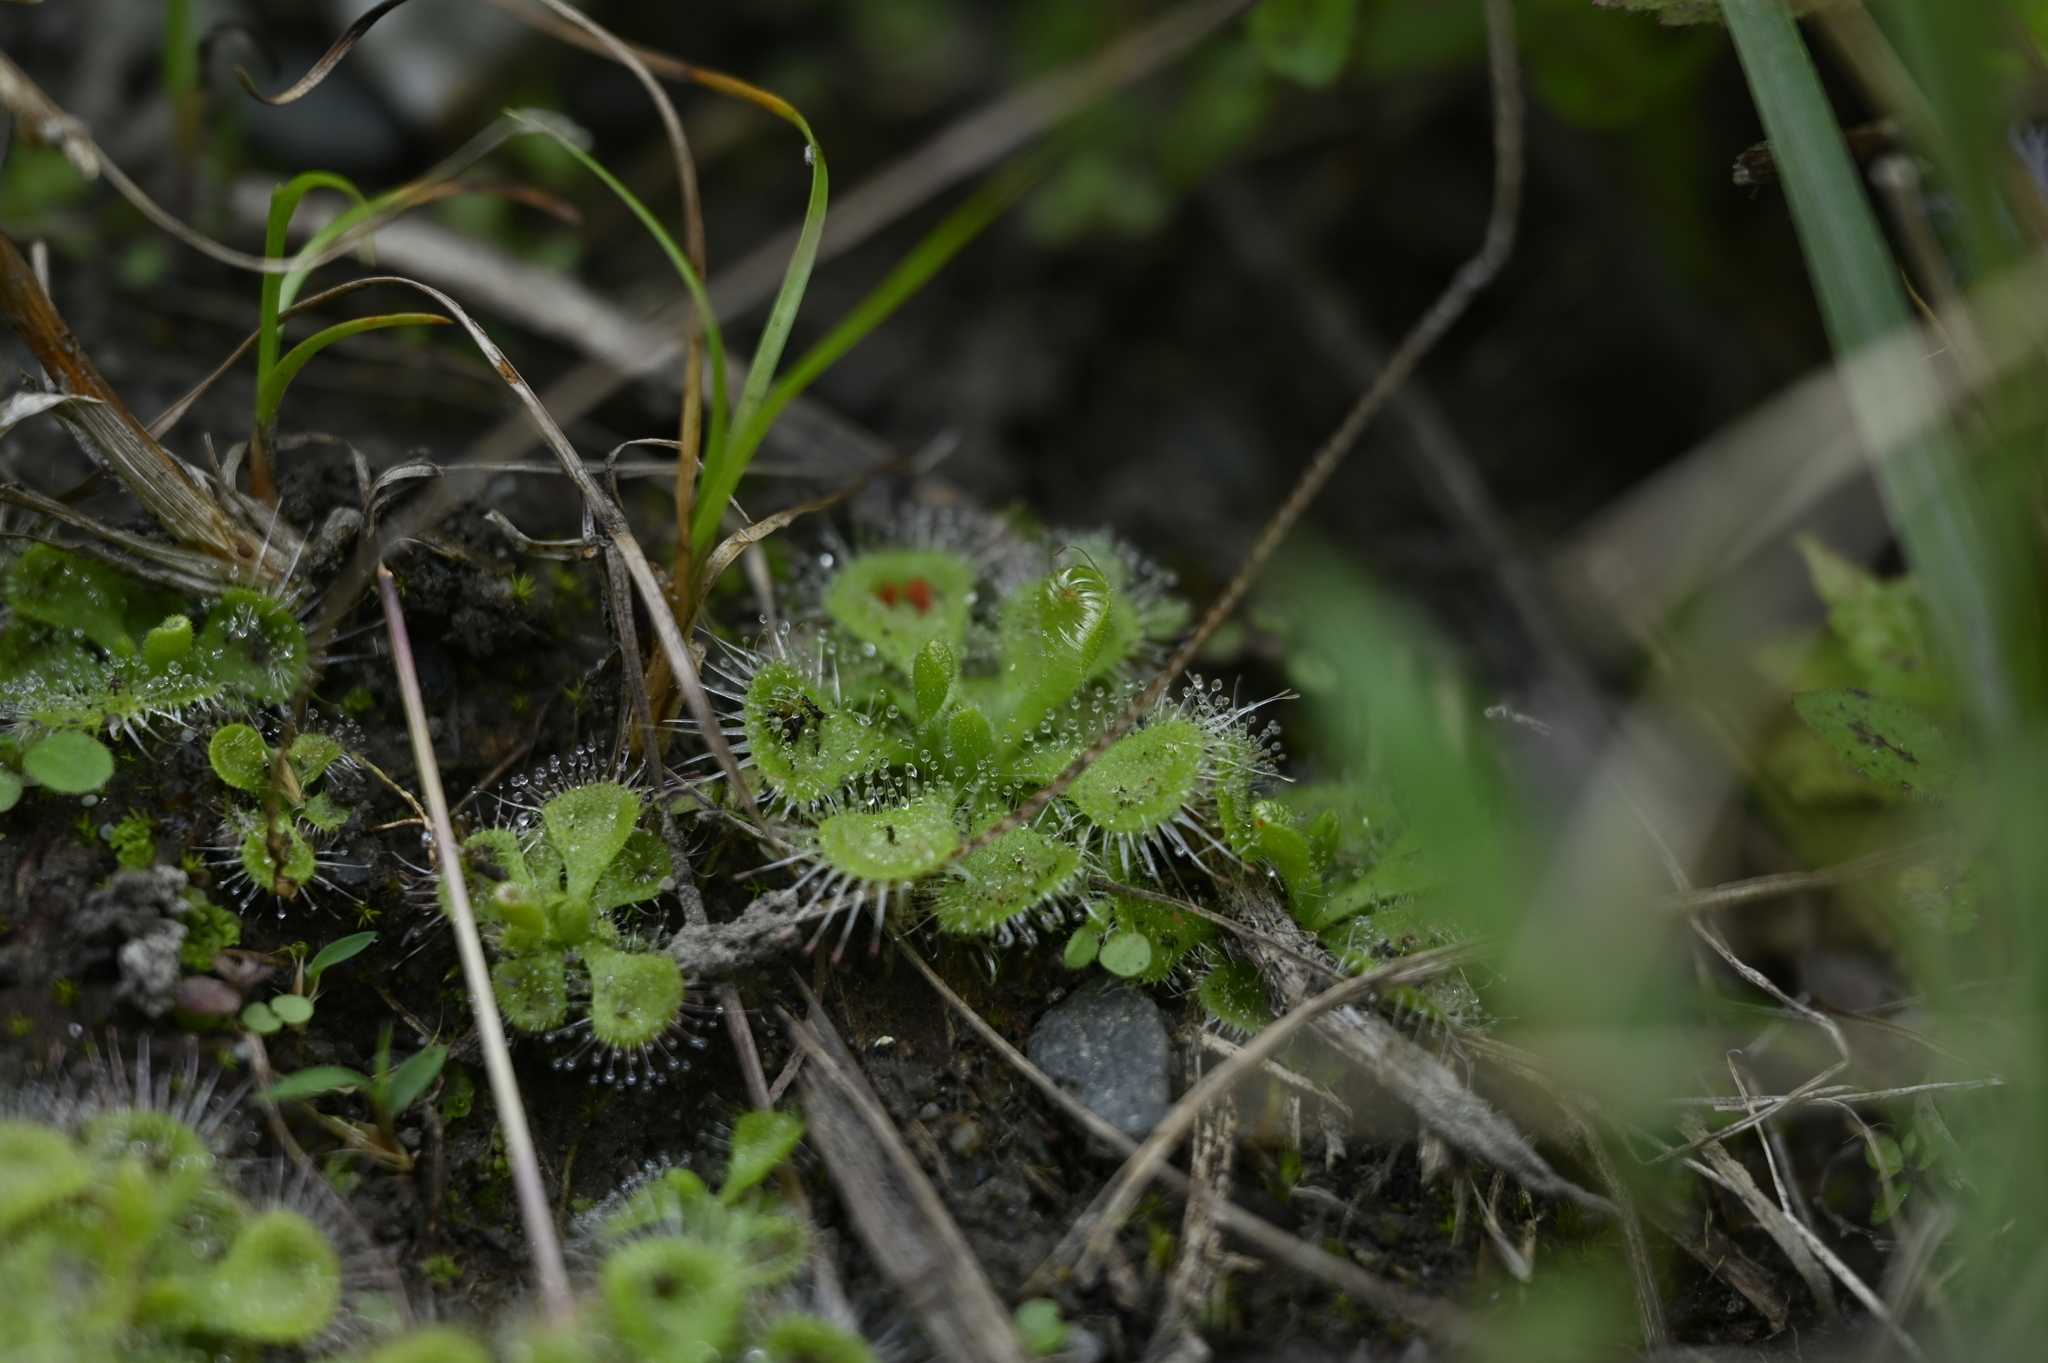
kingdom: Plantae
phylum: Tracheophyta
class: Magnoliopsida
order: Caryophyllales
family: Droseraceae
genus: Drosera
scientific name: Drosera spatulata
